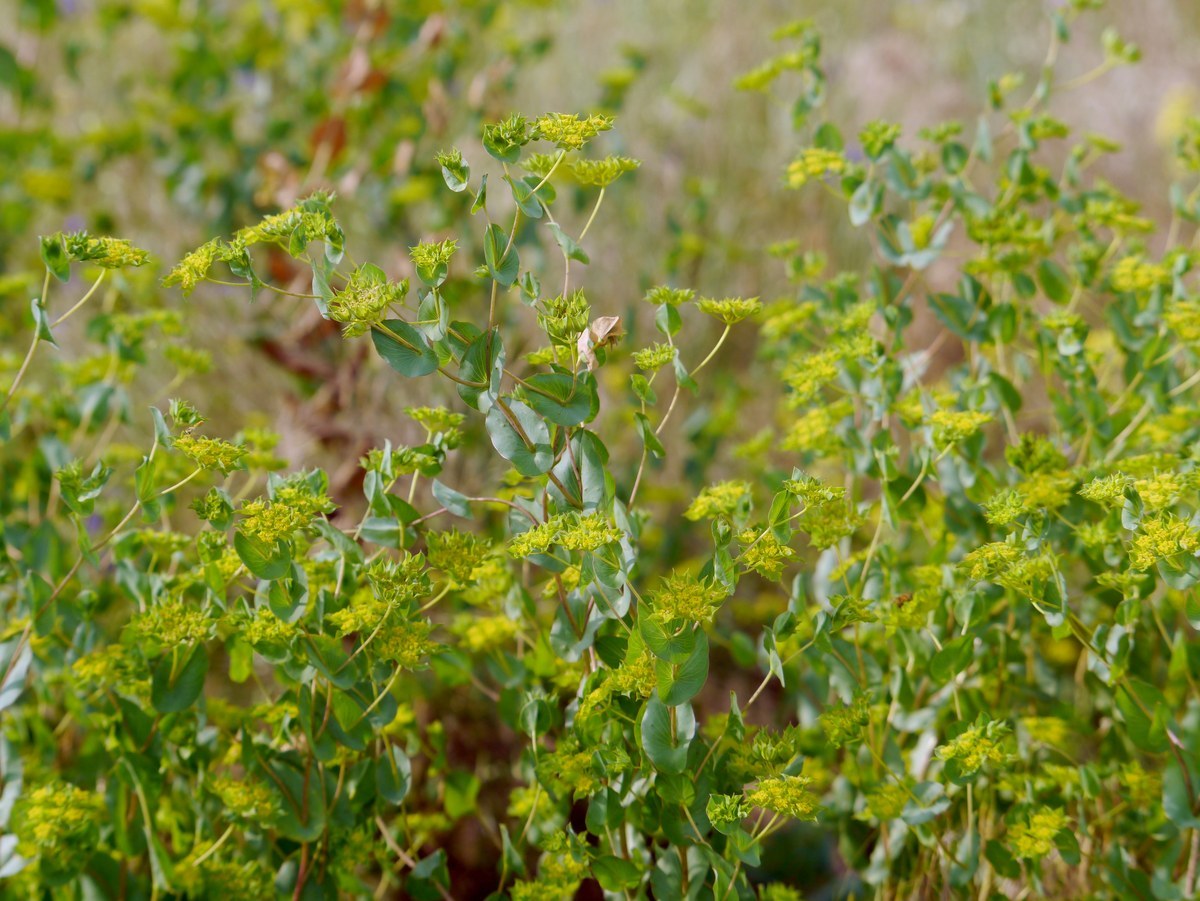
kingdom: Plantae
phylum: Tracheophyta
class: Magnoliopsida
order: Apiales
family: Apiaceae
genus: Bupleurum
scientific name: Bupleurum rotundifolium
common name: Thorow-wax
